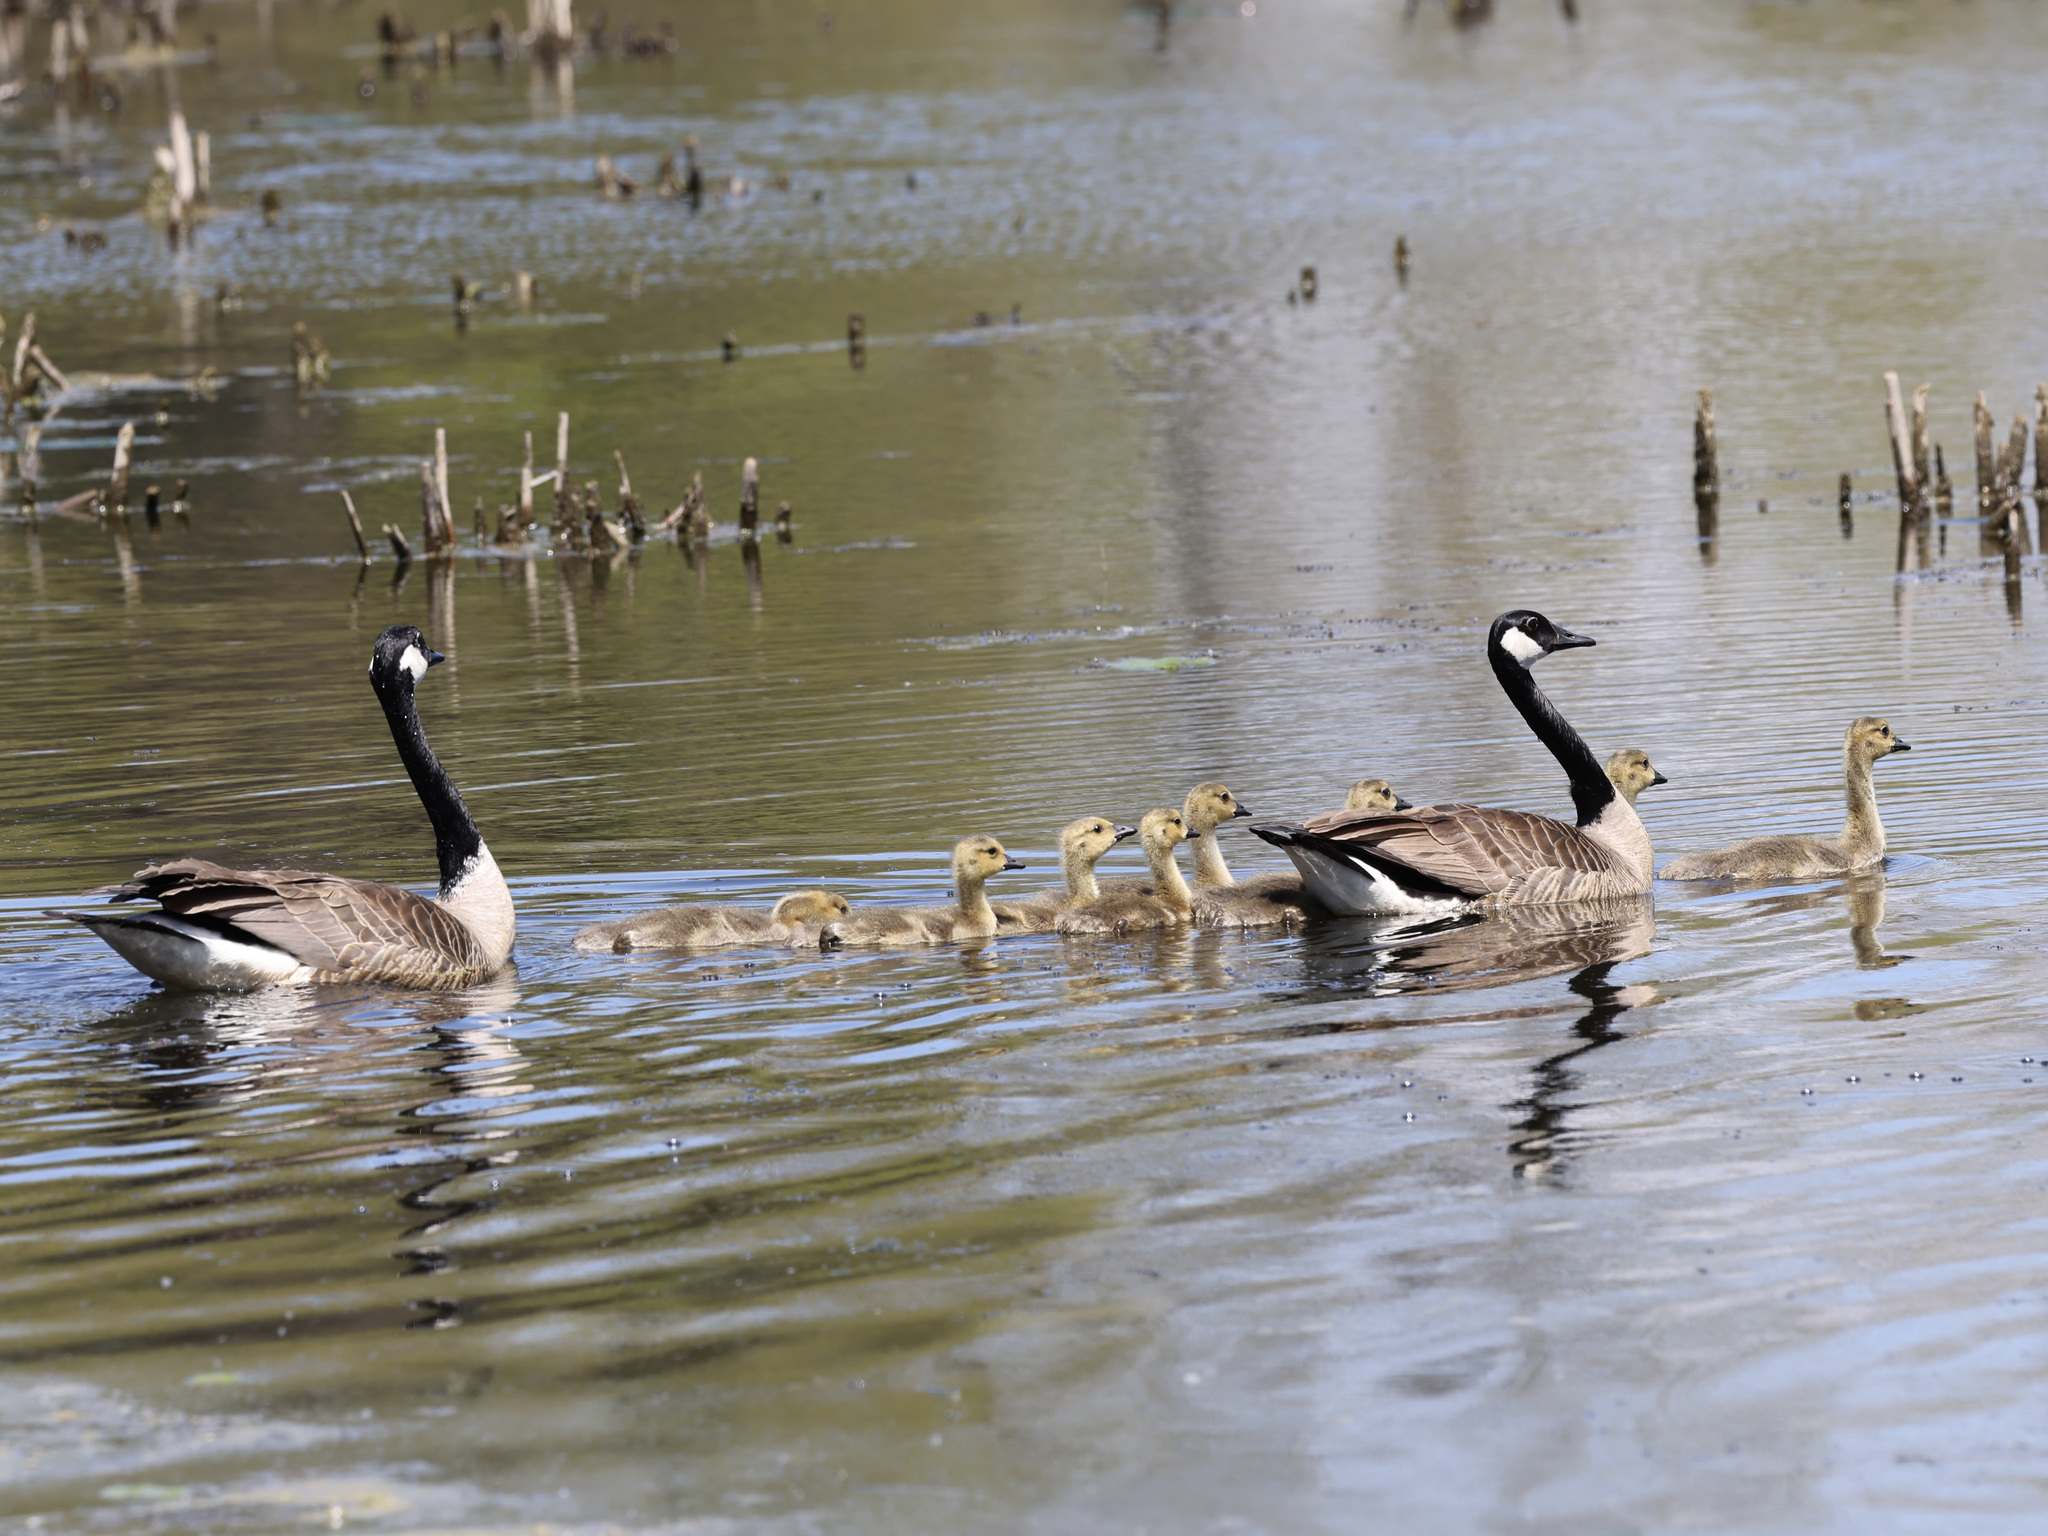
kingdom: Animalia
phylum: Chordata
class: Aves
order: Anseriformes
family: Anatidae
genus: Branta
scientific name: Branta canadensis
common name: Canada goose
